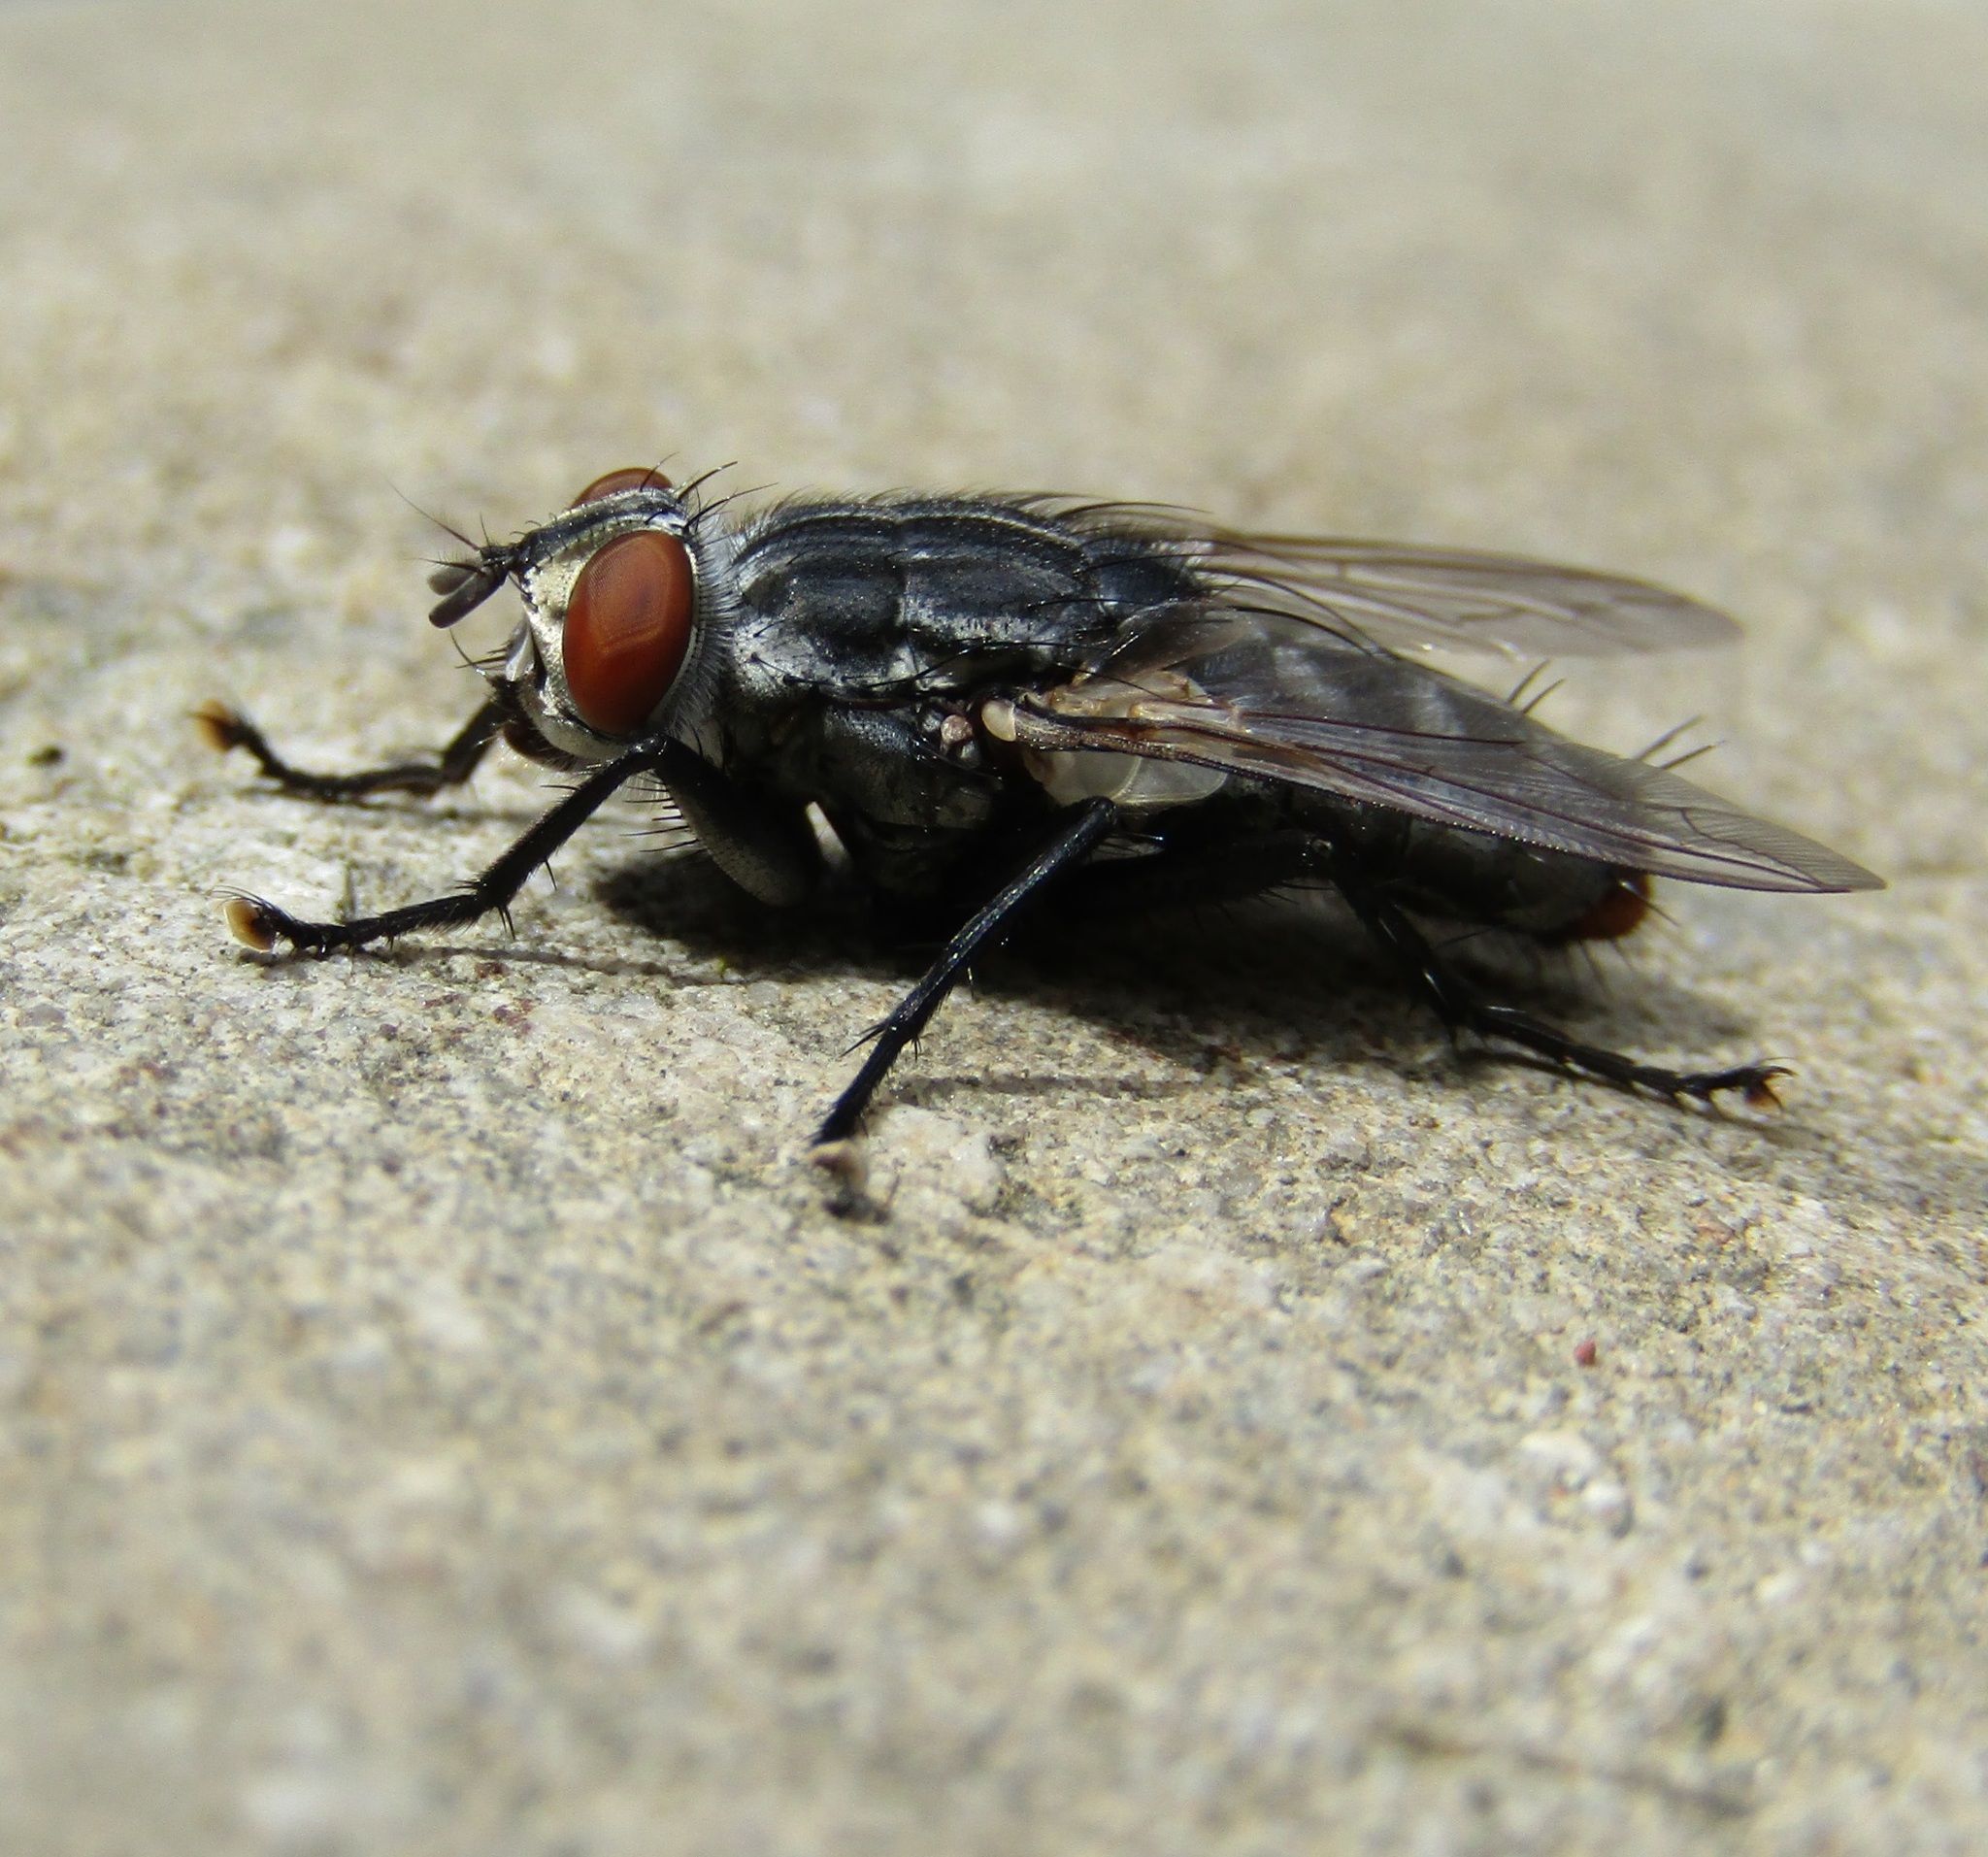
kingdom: Animalia
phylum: Arthropoda
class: Insecta
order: Diptera
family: Sarcophagidae
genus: Sarcophaga
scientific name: Sarcophaga crassipalpis
